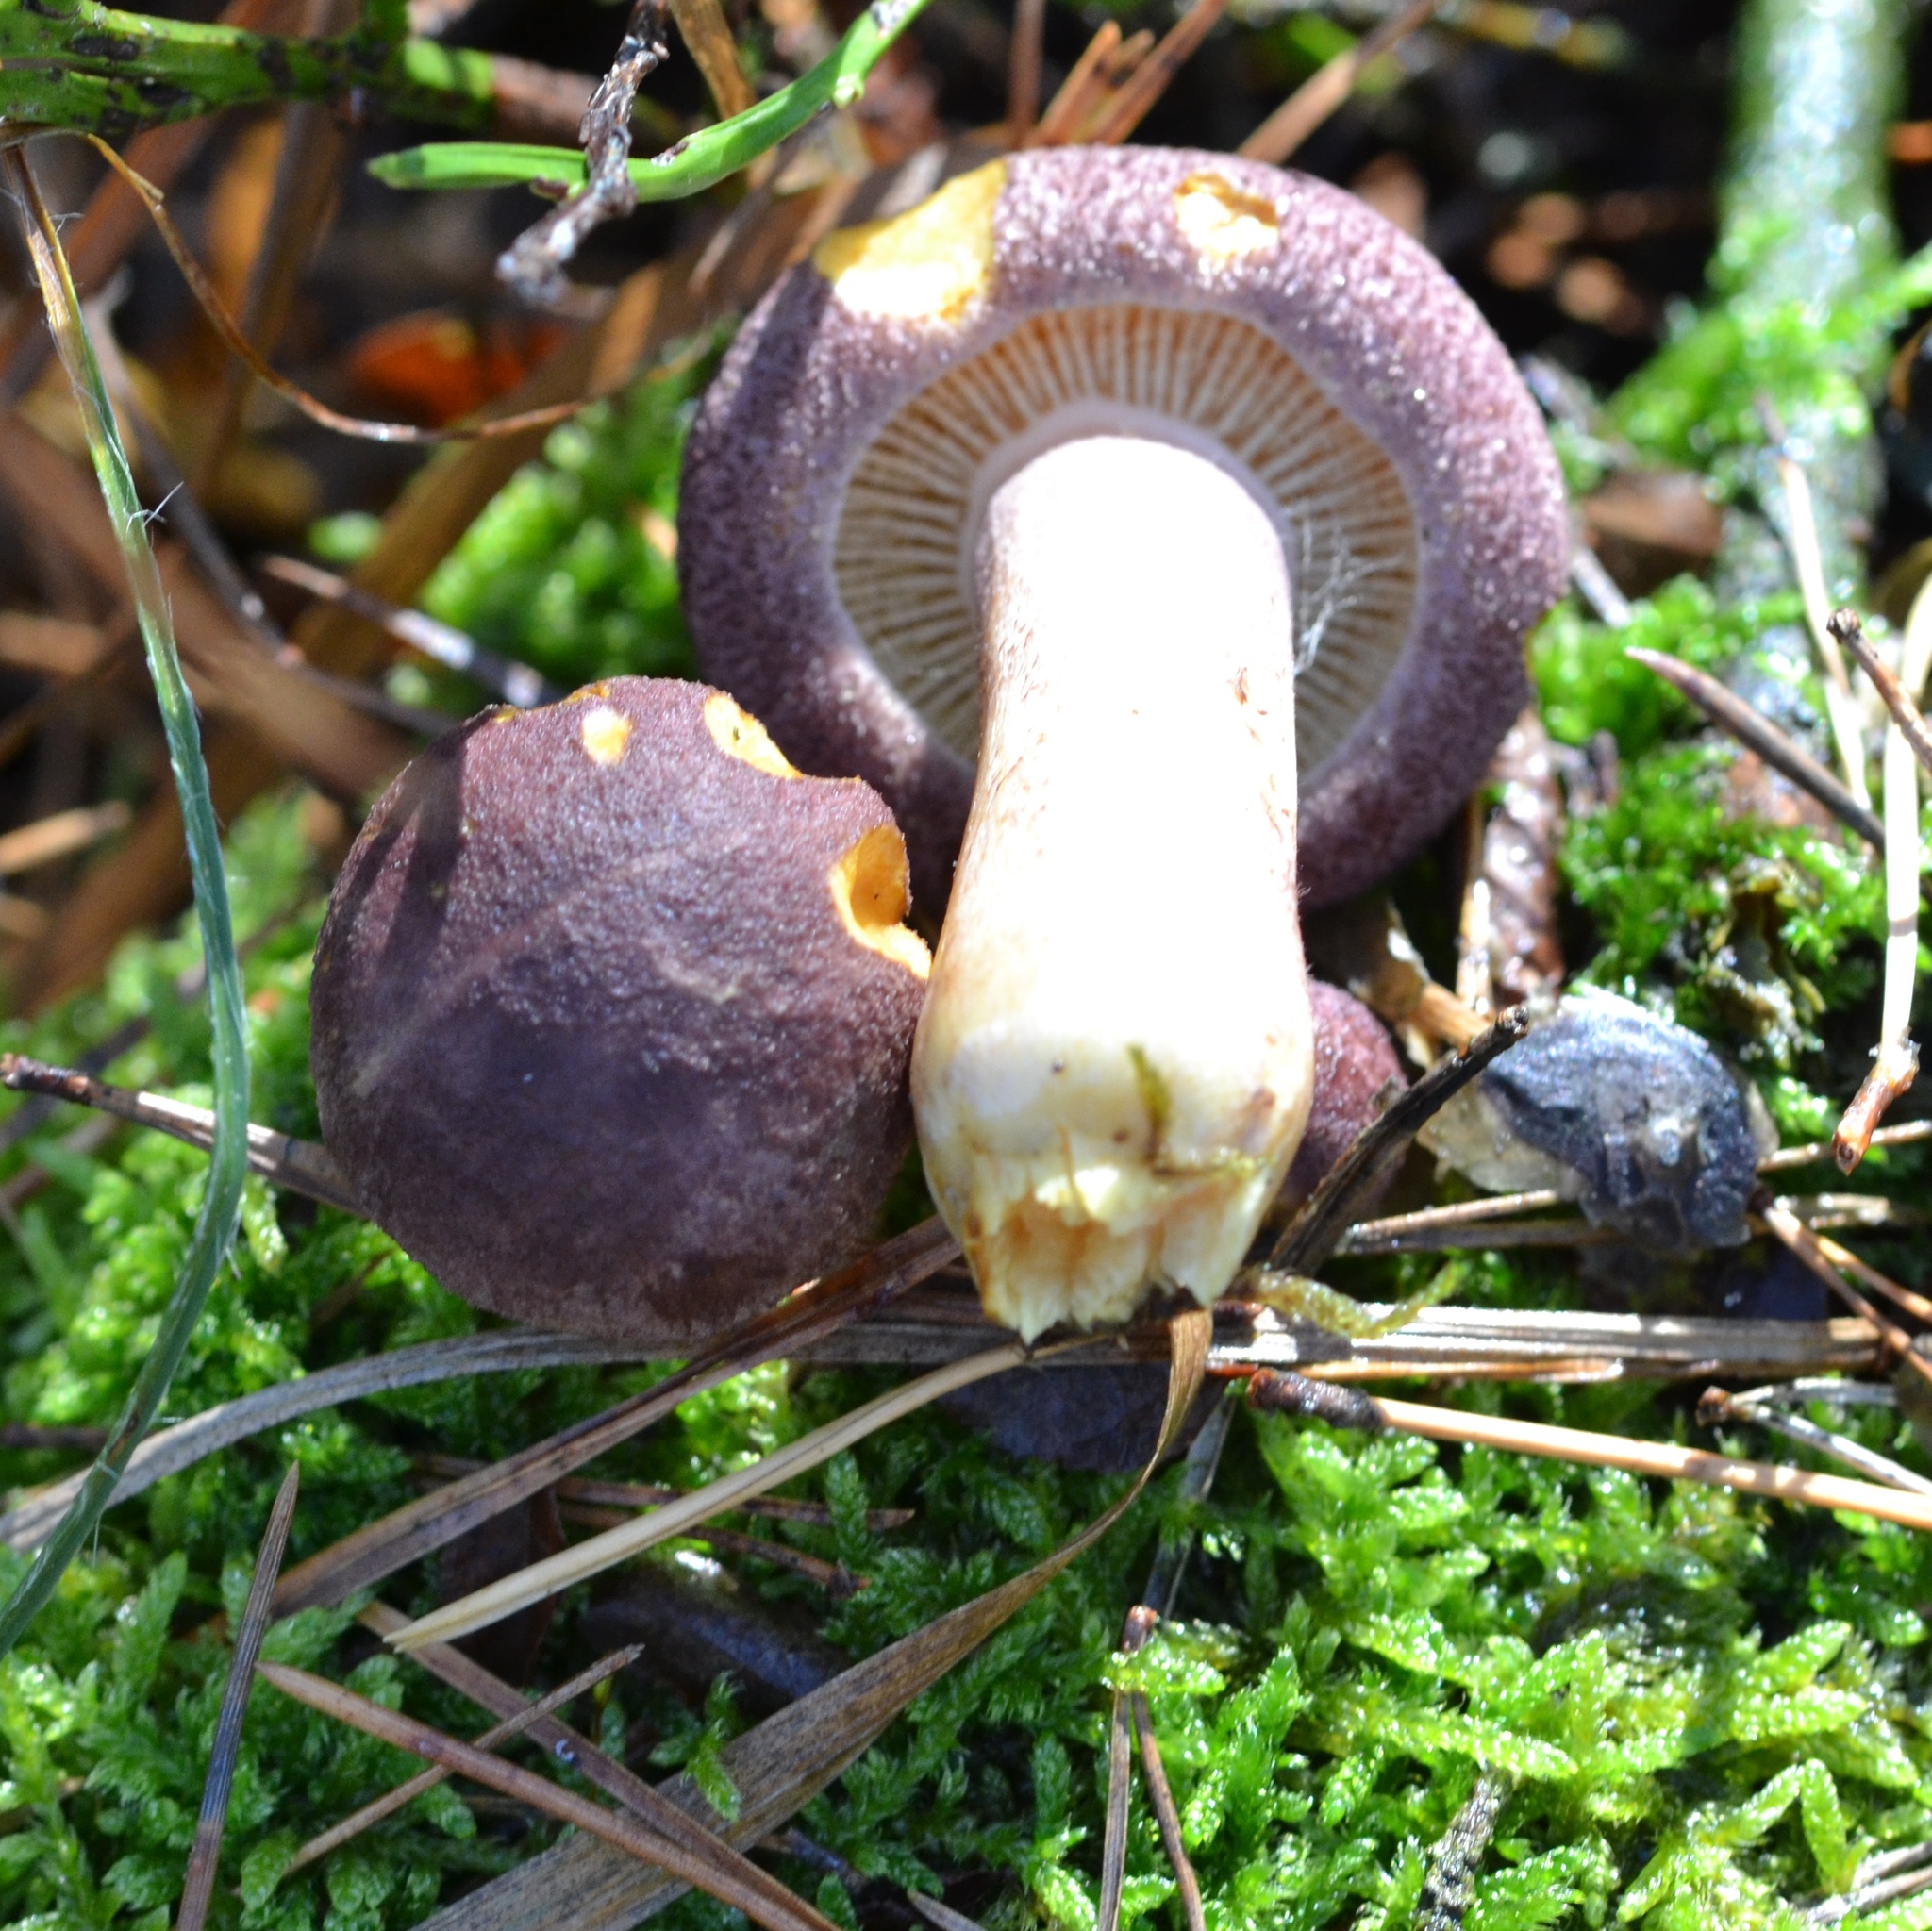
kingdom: Fungi
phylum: Basidiomycota
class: Agaricomycetes
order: Agaricales
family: Tricholomataceae
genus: Tricholomopsis
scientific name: Tricholomopsis rutilans
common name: Plums and custard
